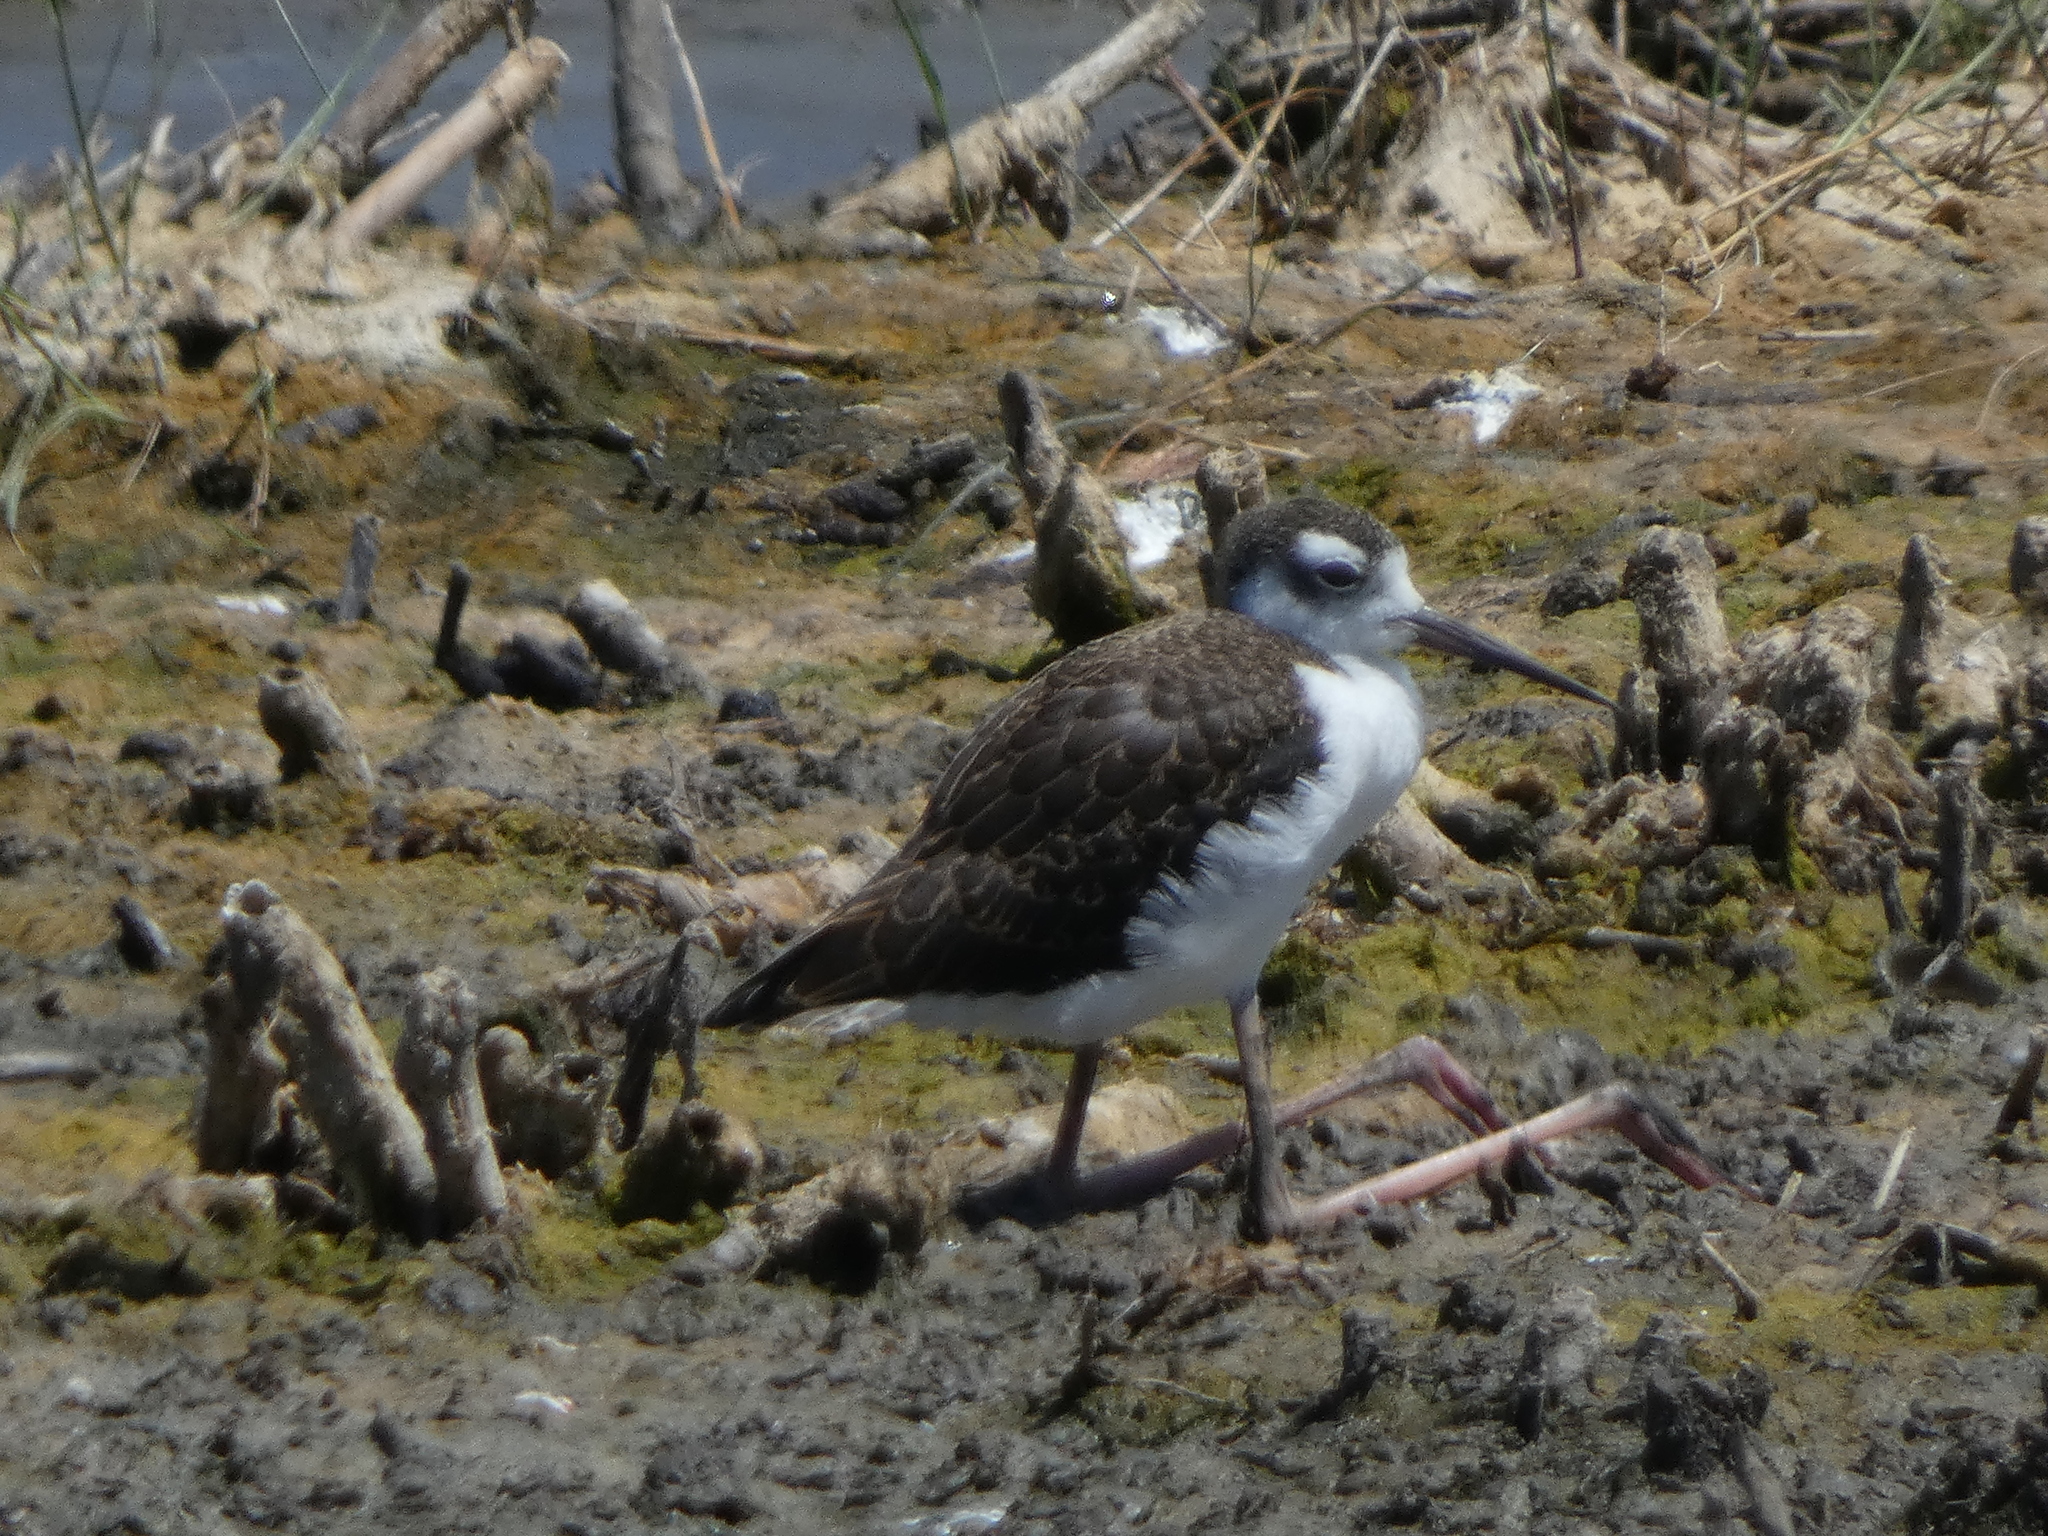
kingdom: Animalia
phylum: Chordata
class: Aves
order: Charadriiformes
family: Recurvirostridae
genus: Himantopus
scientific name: Himantopus mexicanus
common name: Black-necked stilt
